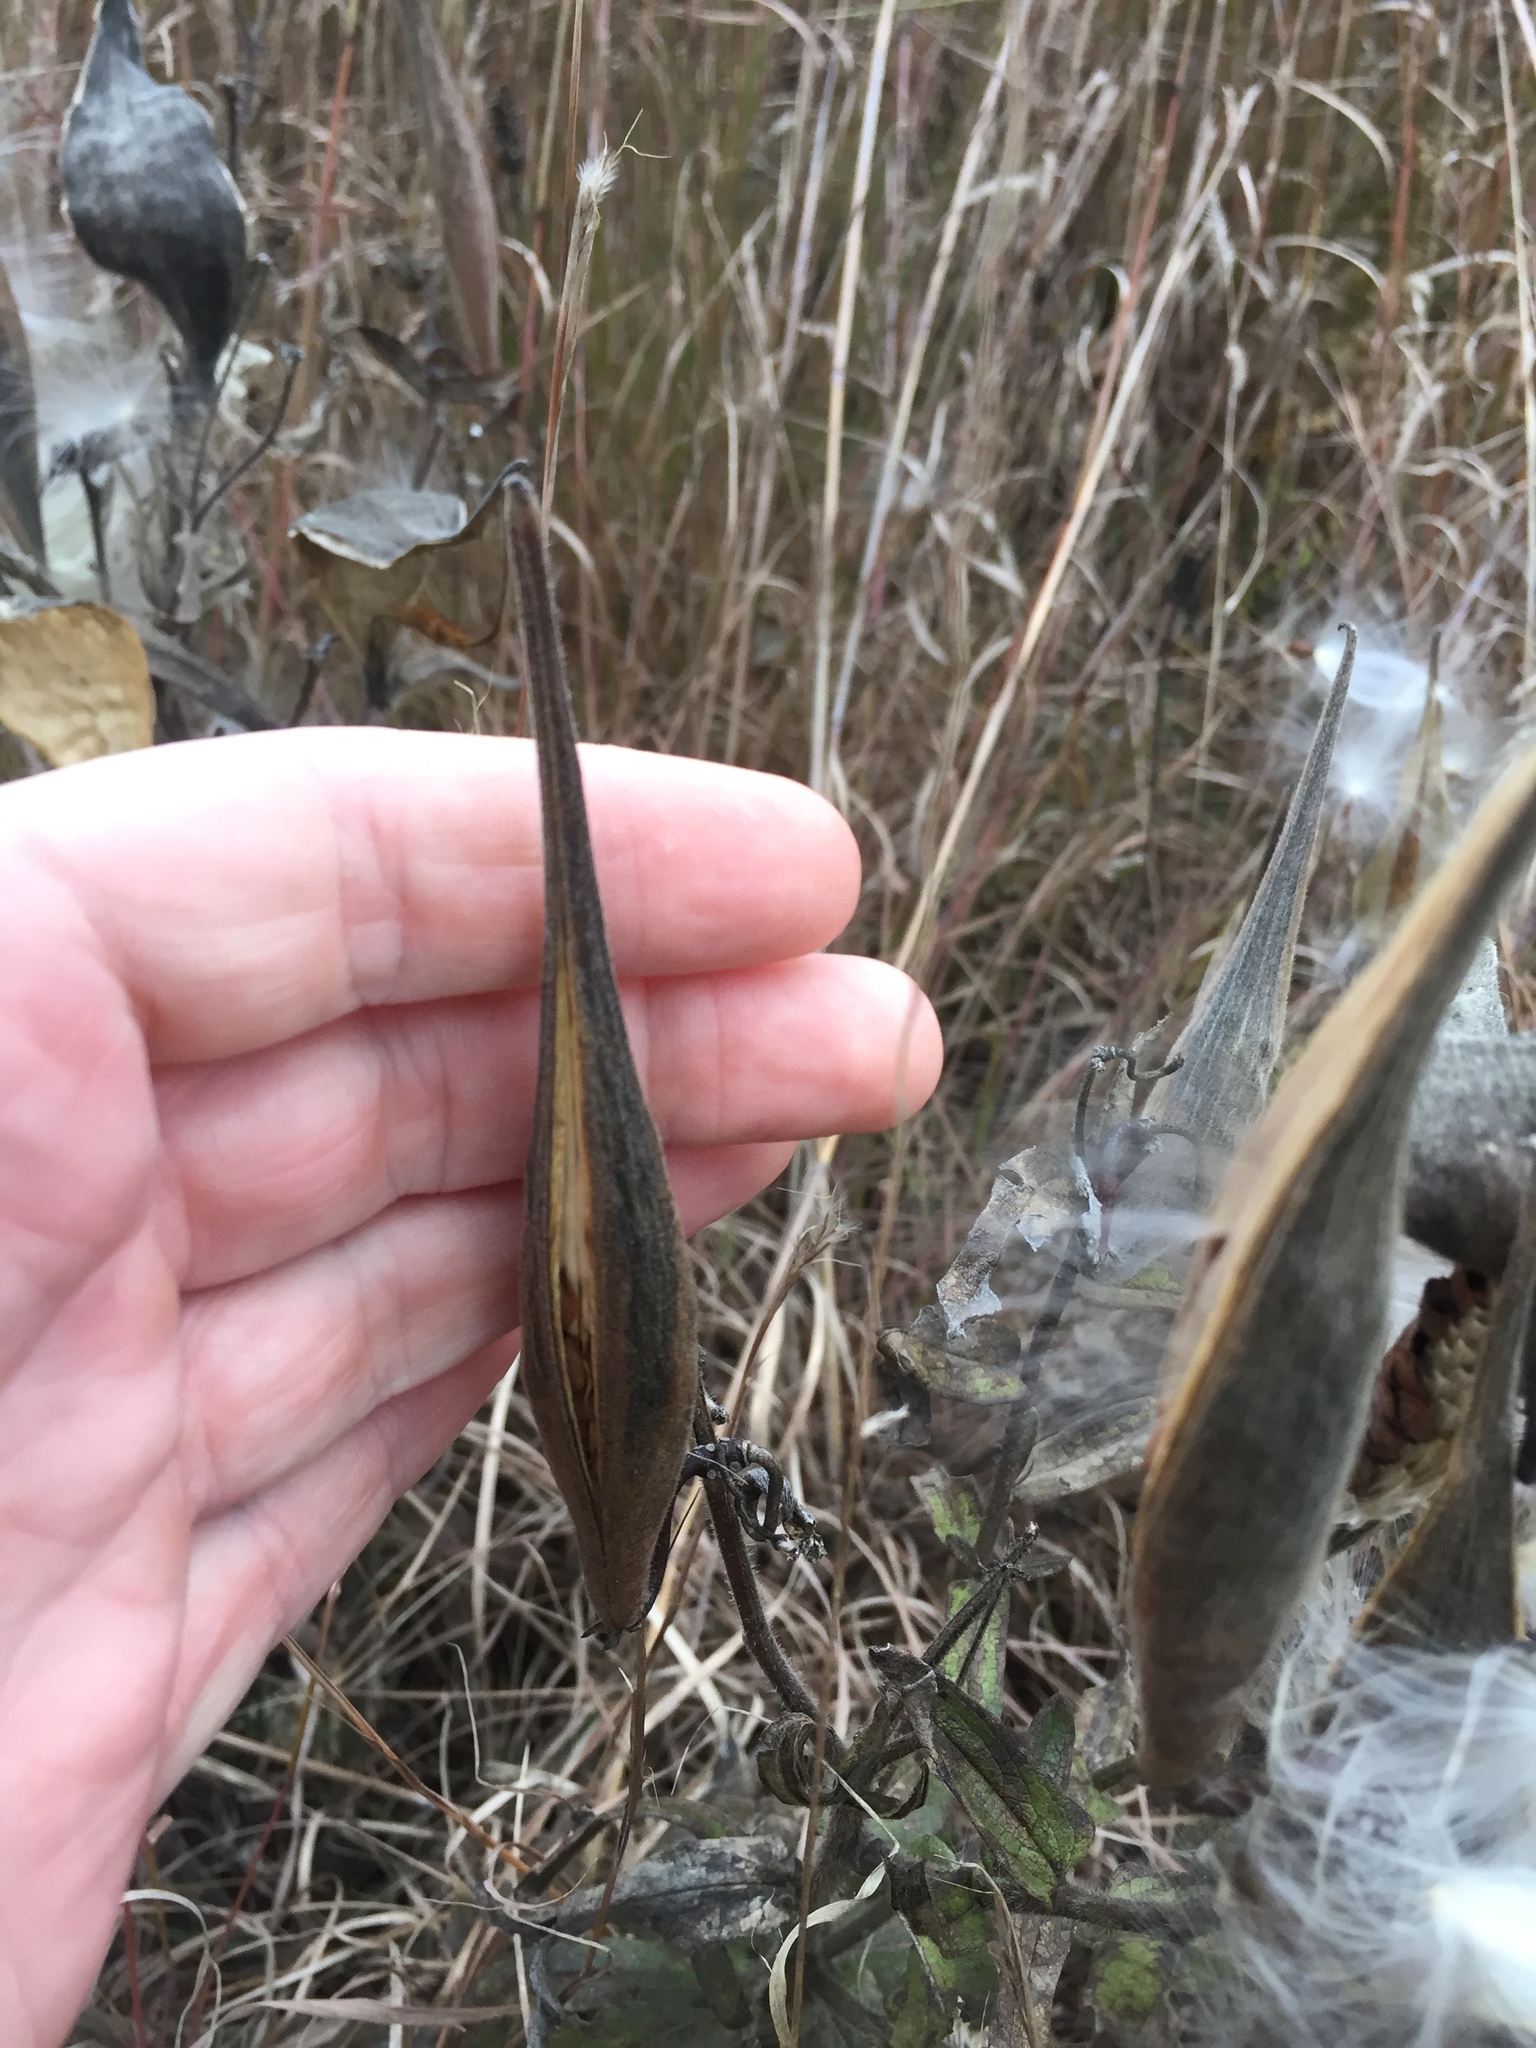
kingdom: Plantae
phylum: Tracheophyta
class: Magnoliopsida
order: Gentianales
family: Apocynaceae
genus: Asclepias
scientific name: Asclepias tuberosa
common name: Butterfly milkweed
